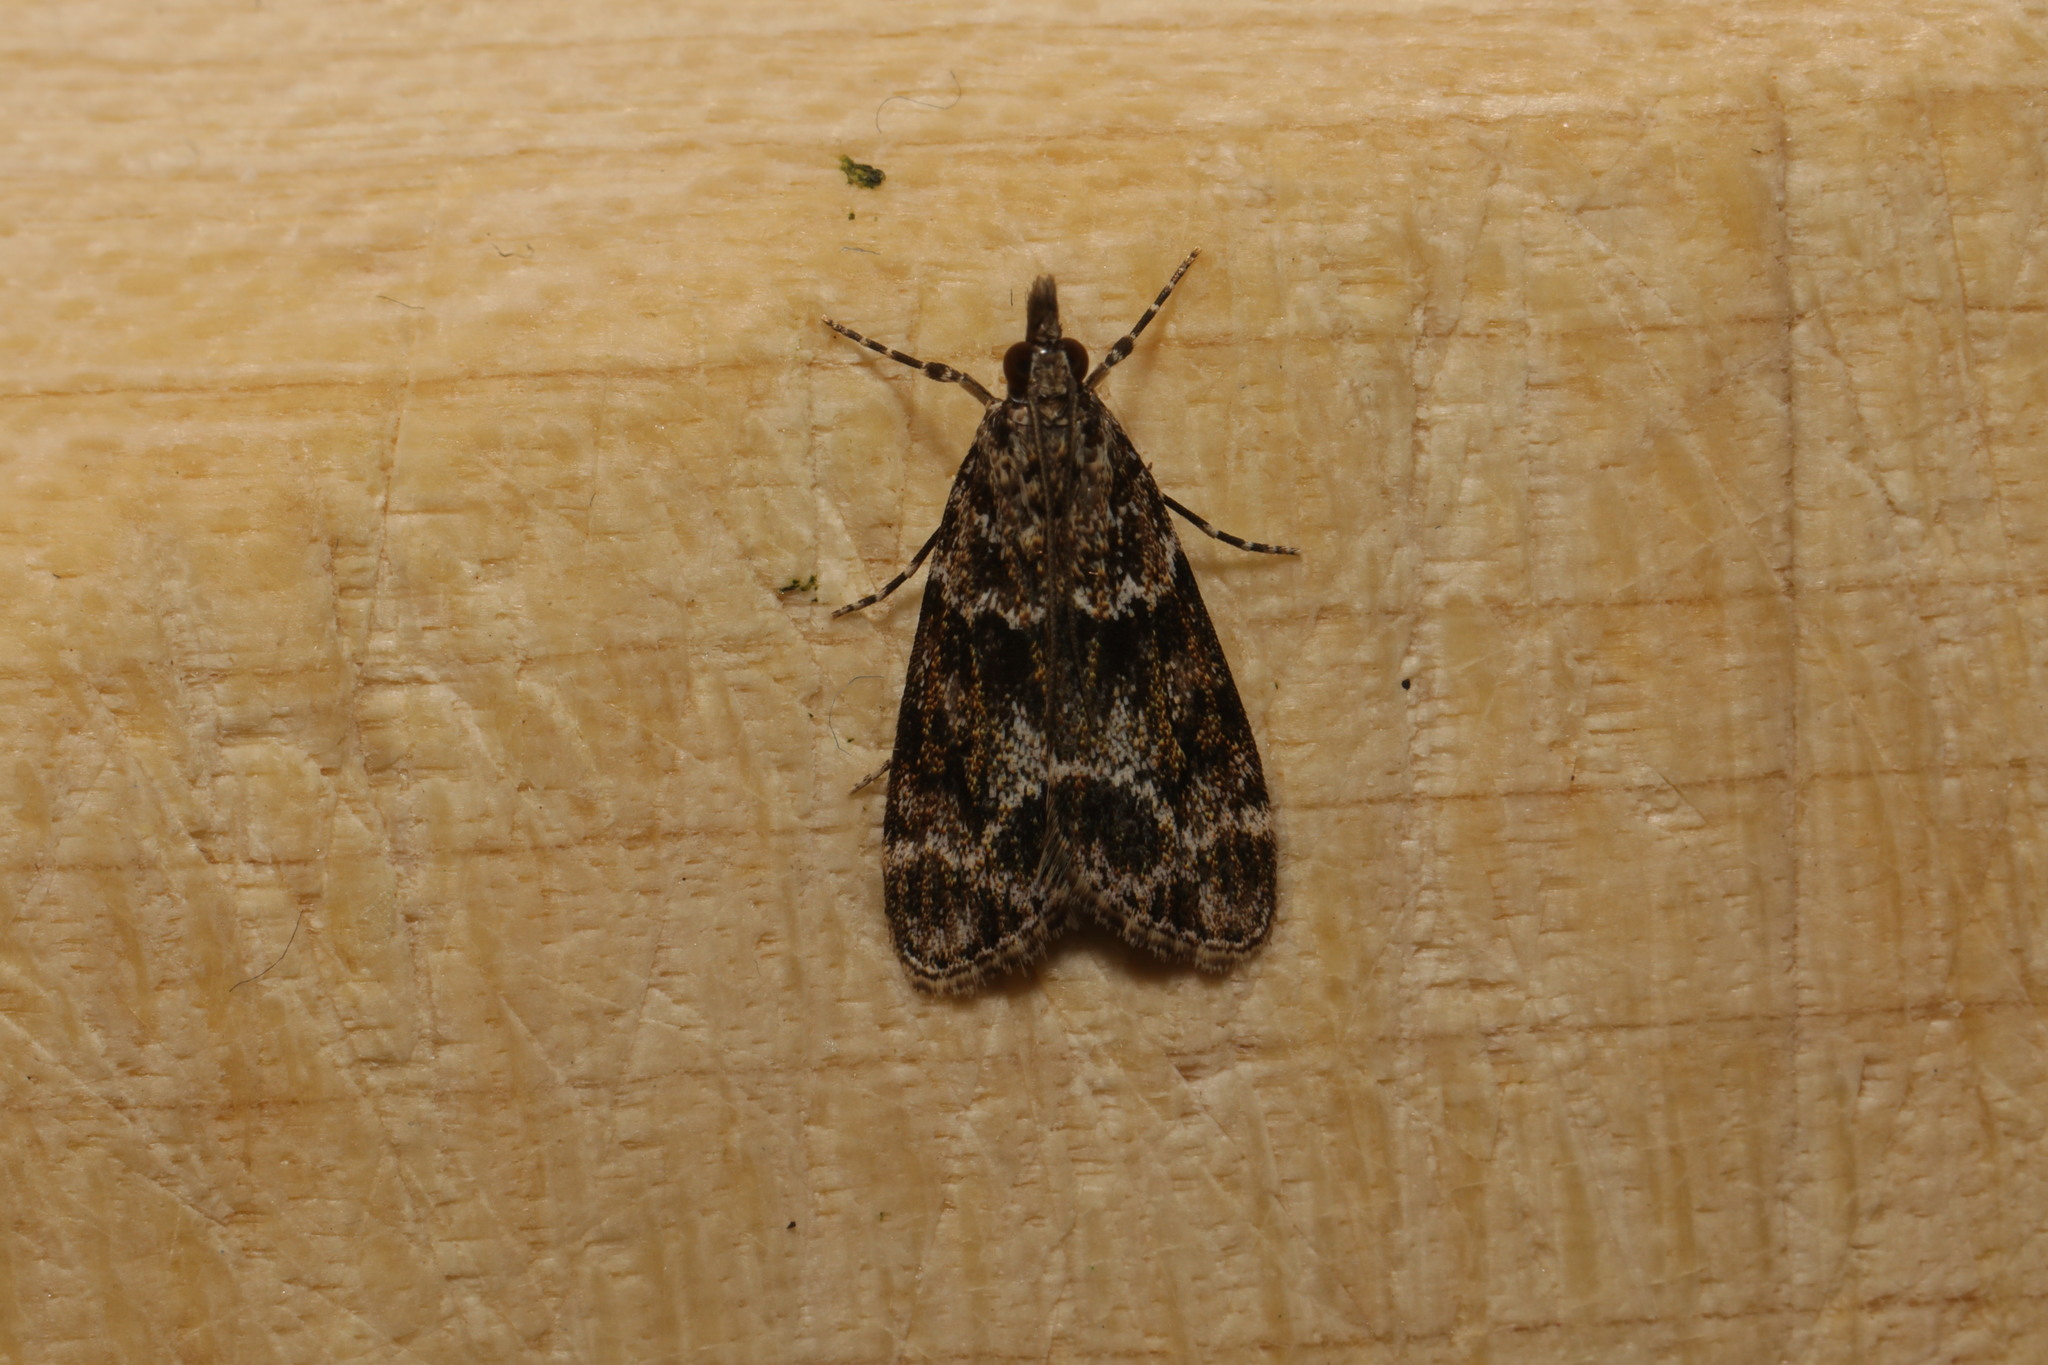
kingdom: Animalia
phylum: Arthropoda
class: Insecta
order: Lepidoptera
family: Crambidae
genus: Eudonia
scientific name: Eudonia mercurella
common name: Small grey
